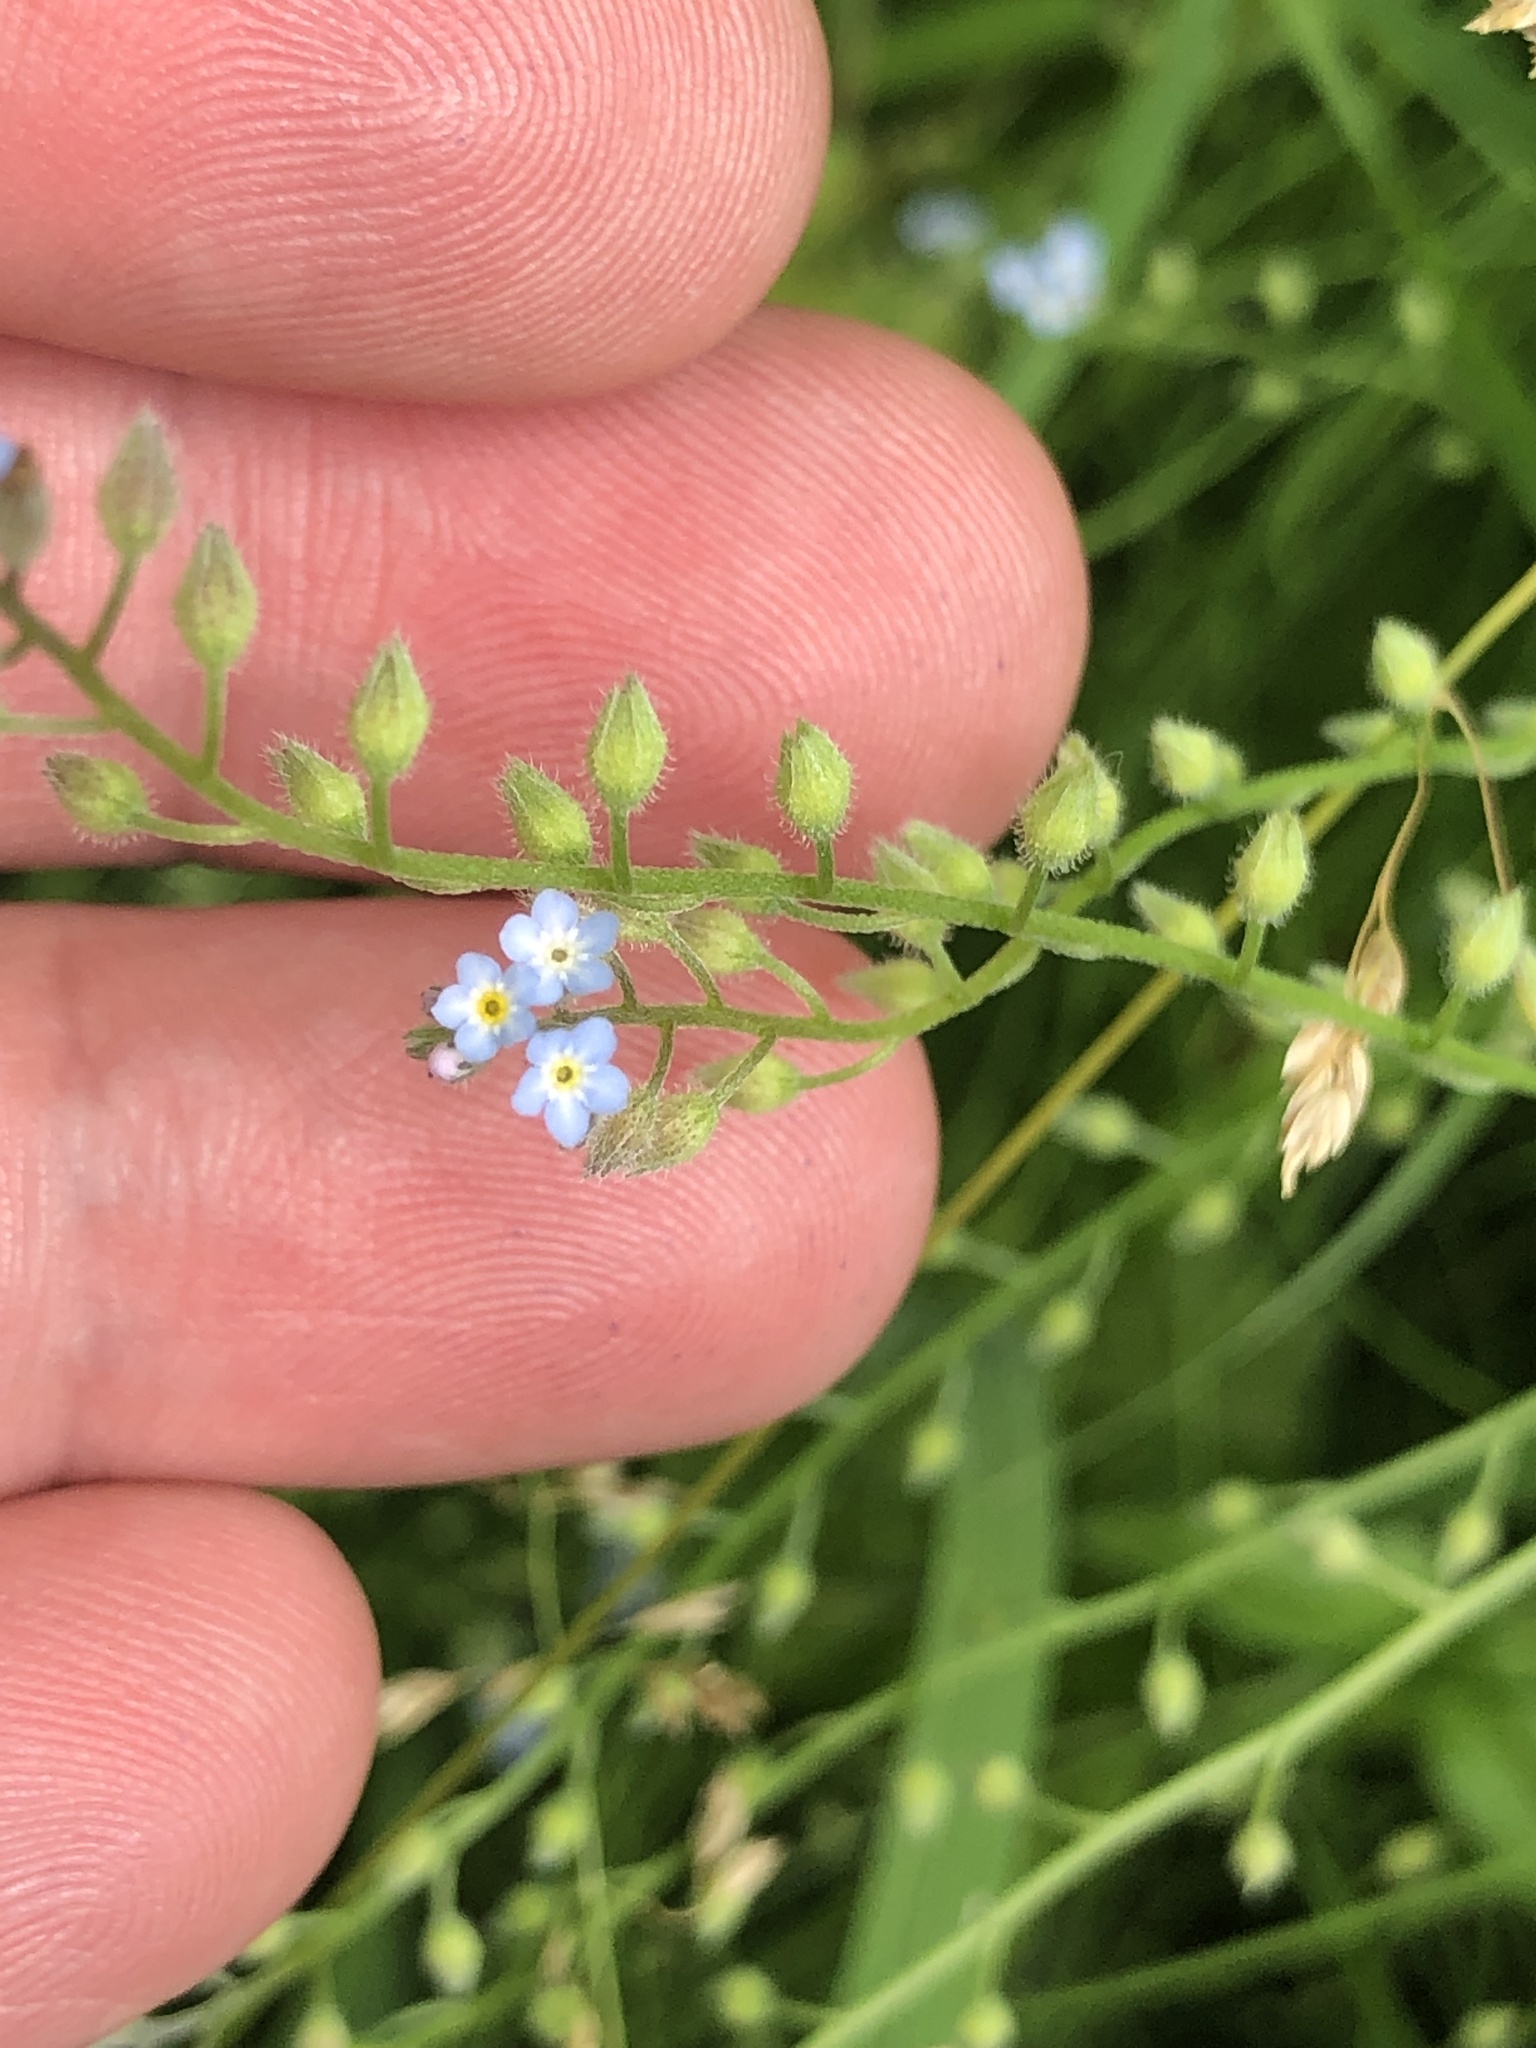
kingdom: Plantae
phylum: Tracheophyta
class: Magnoliopsida
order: Boraginales
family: Boraginaceae
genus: Myosotis
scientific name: Myosotis arvensis
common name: Field forget-me-not
